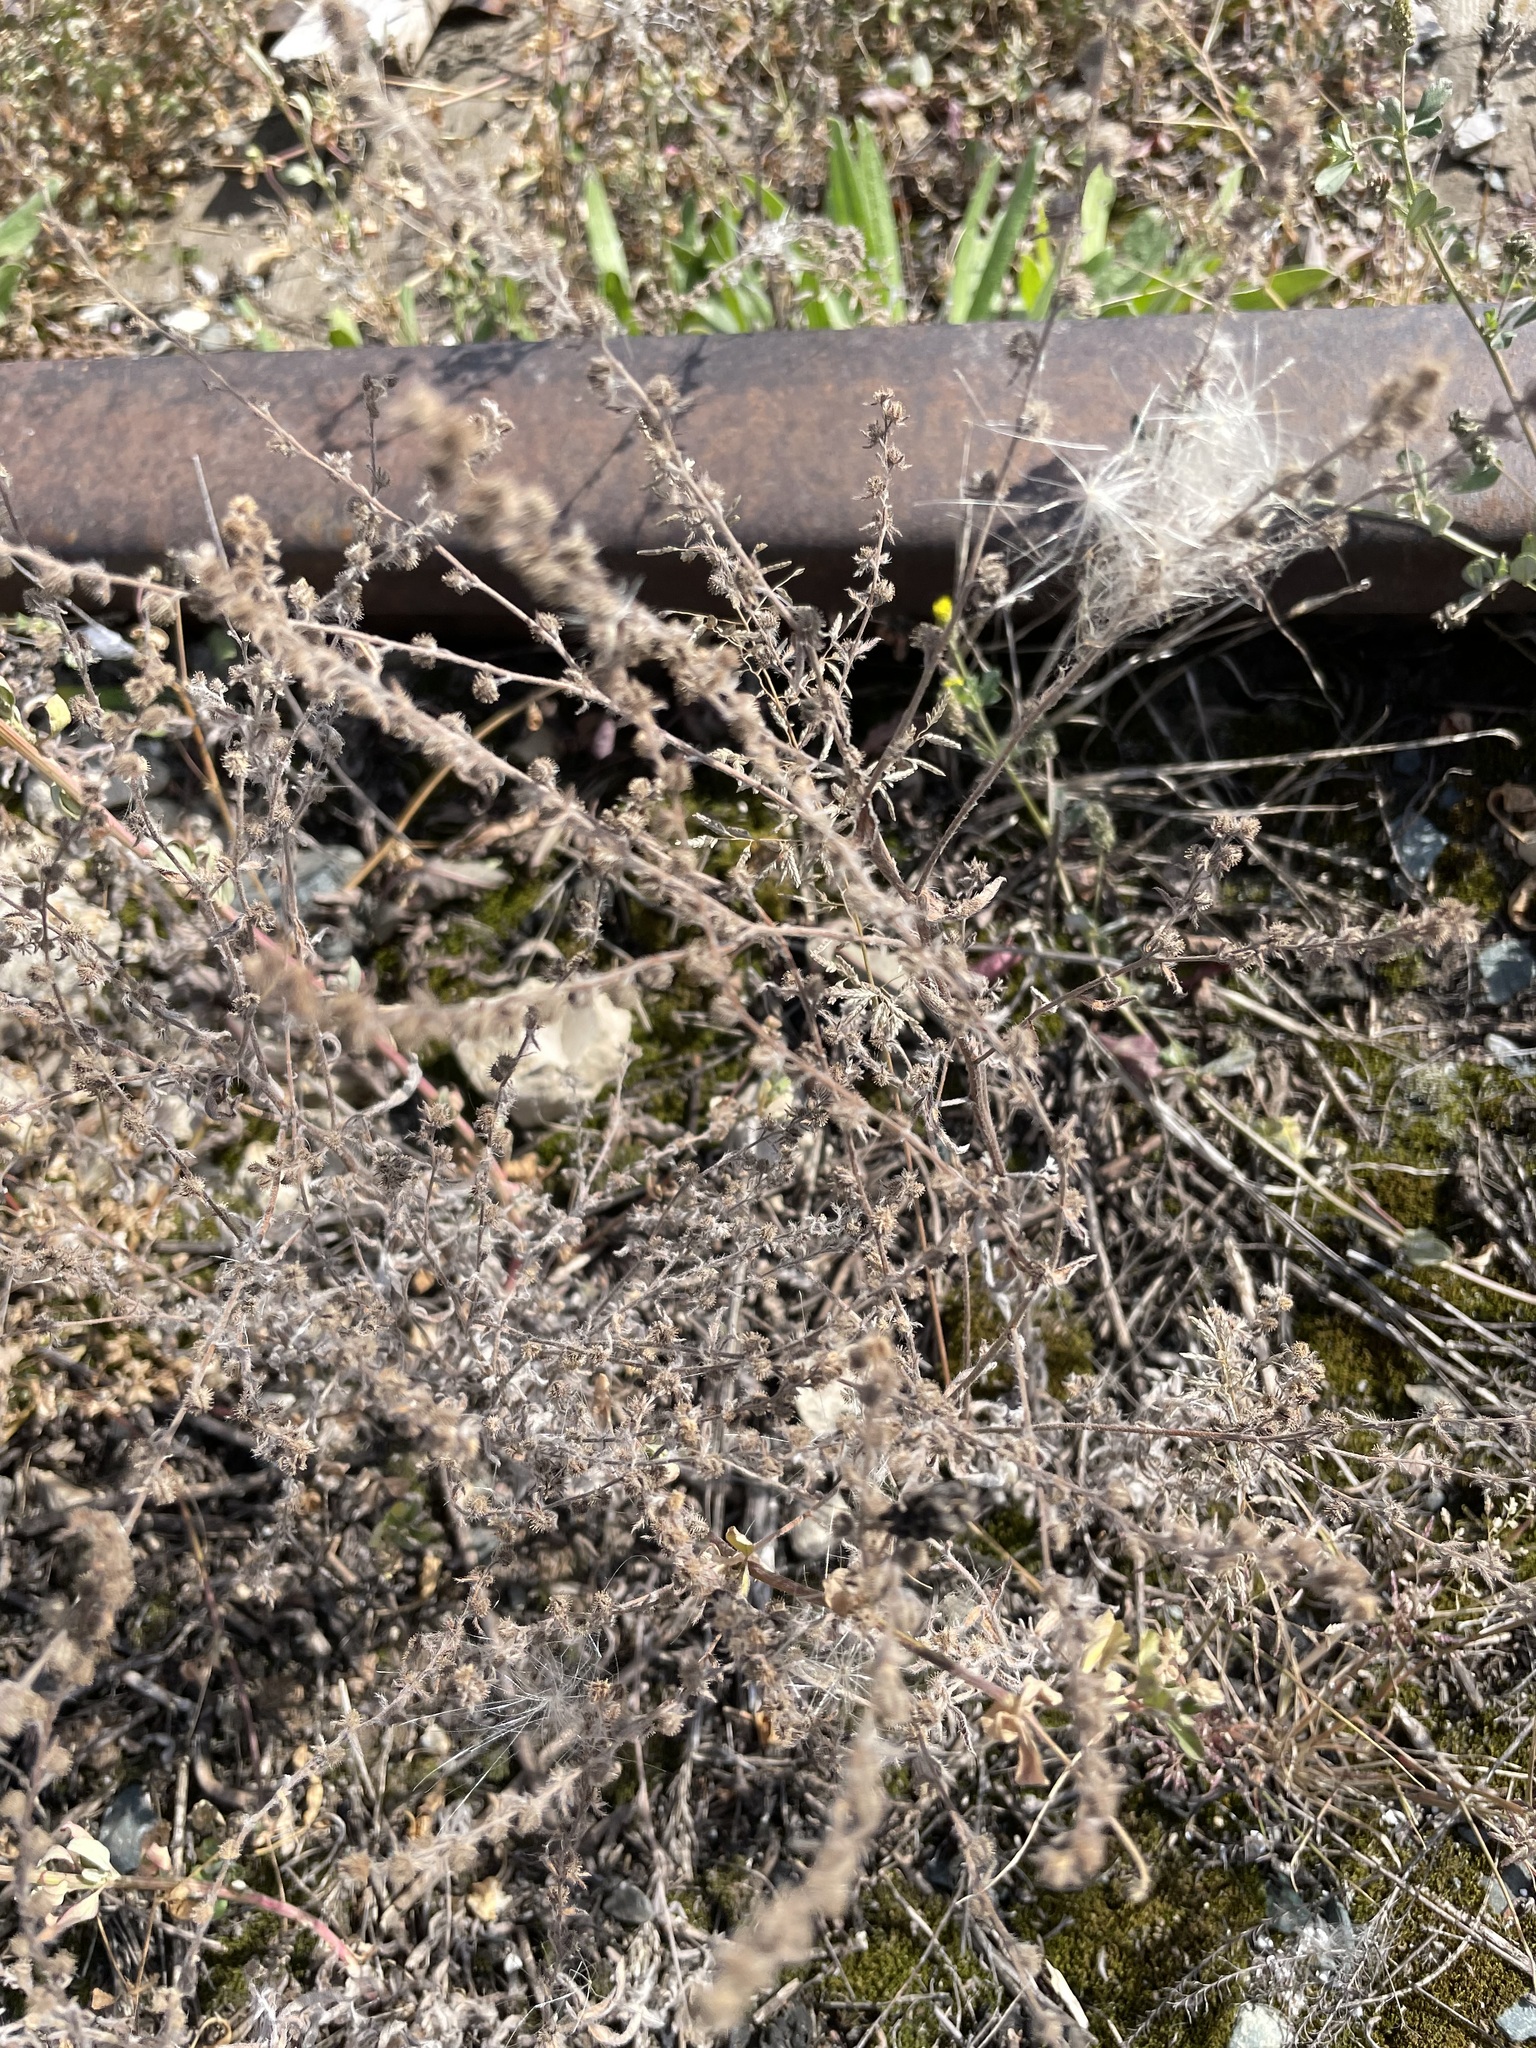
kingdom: Plantae
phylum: Tracheophyta
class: Magnoliopsida
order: Boraginales
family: Boraginaceae
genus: Lappula
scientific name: Lappula squarrosa
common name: European stickseed
